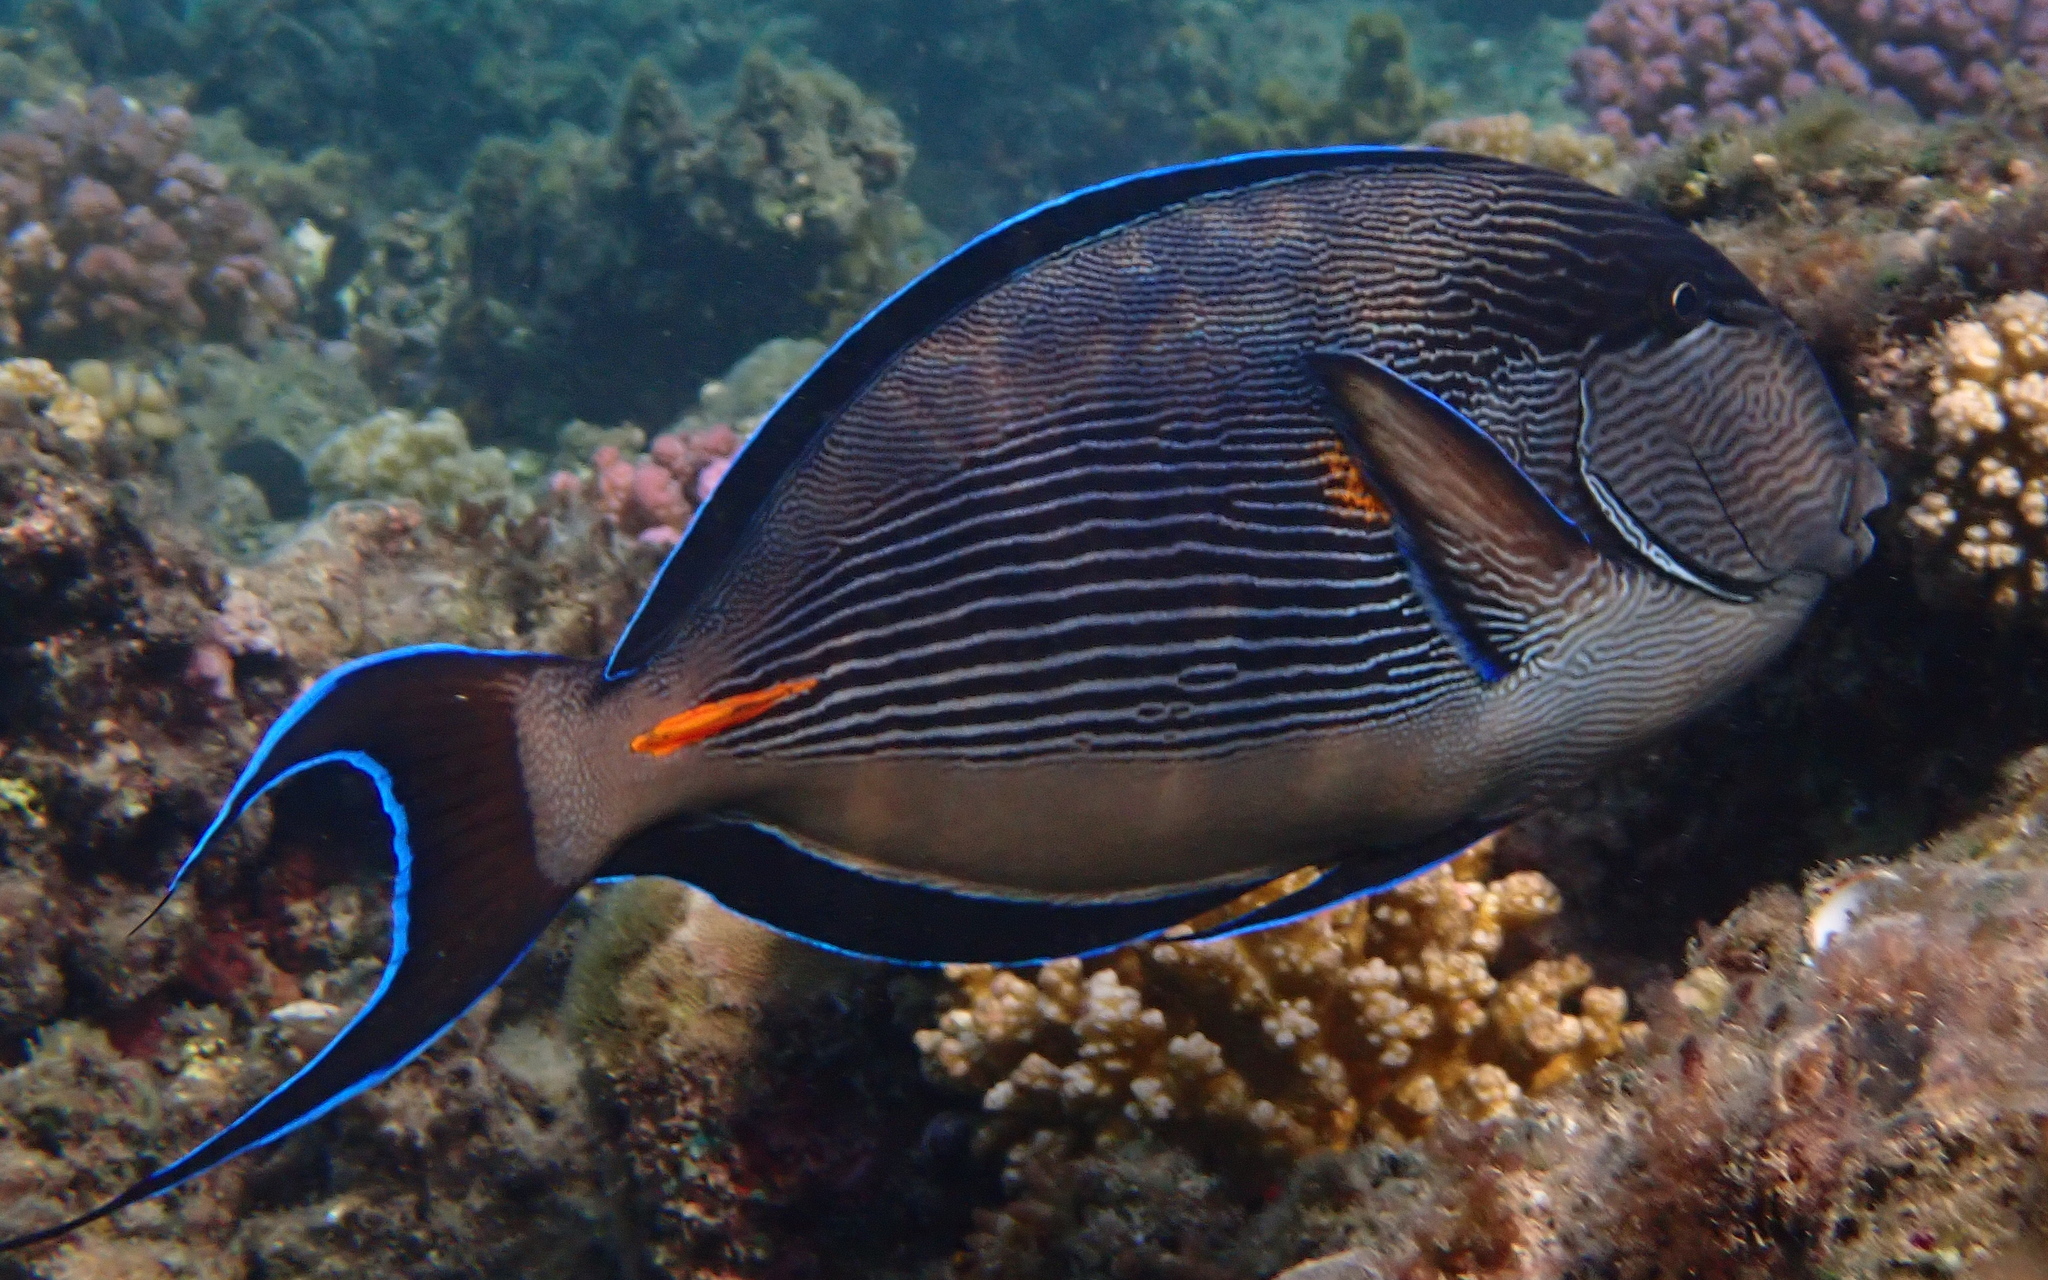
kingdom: Animalia
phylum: Chordata
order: Perciformes
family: Acanthuridae
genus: Acanthurus
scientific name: Acanthurus sohal
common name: Red sea surgeonfish
